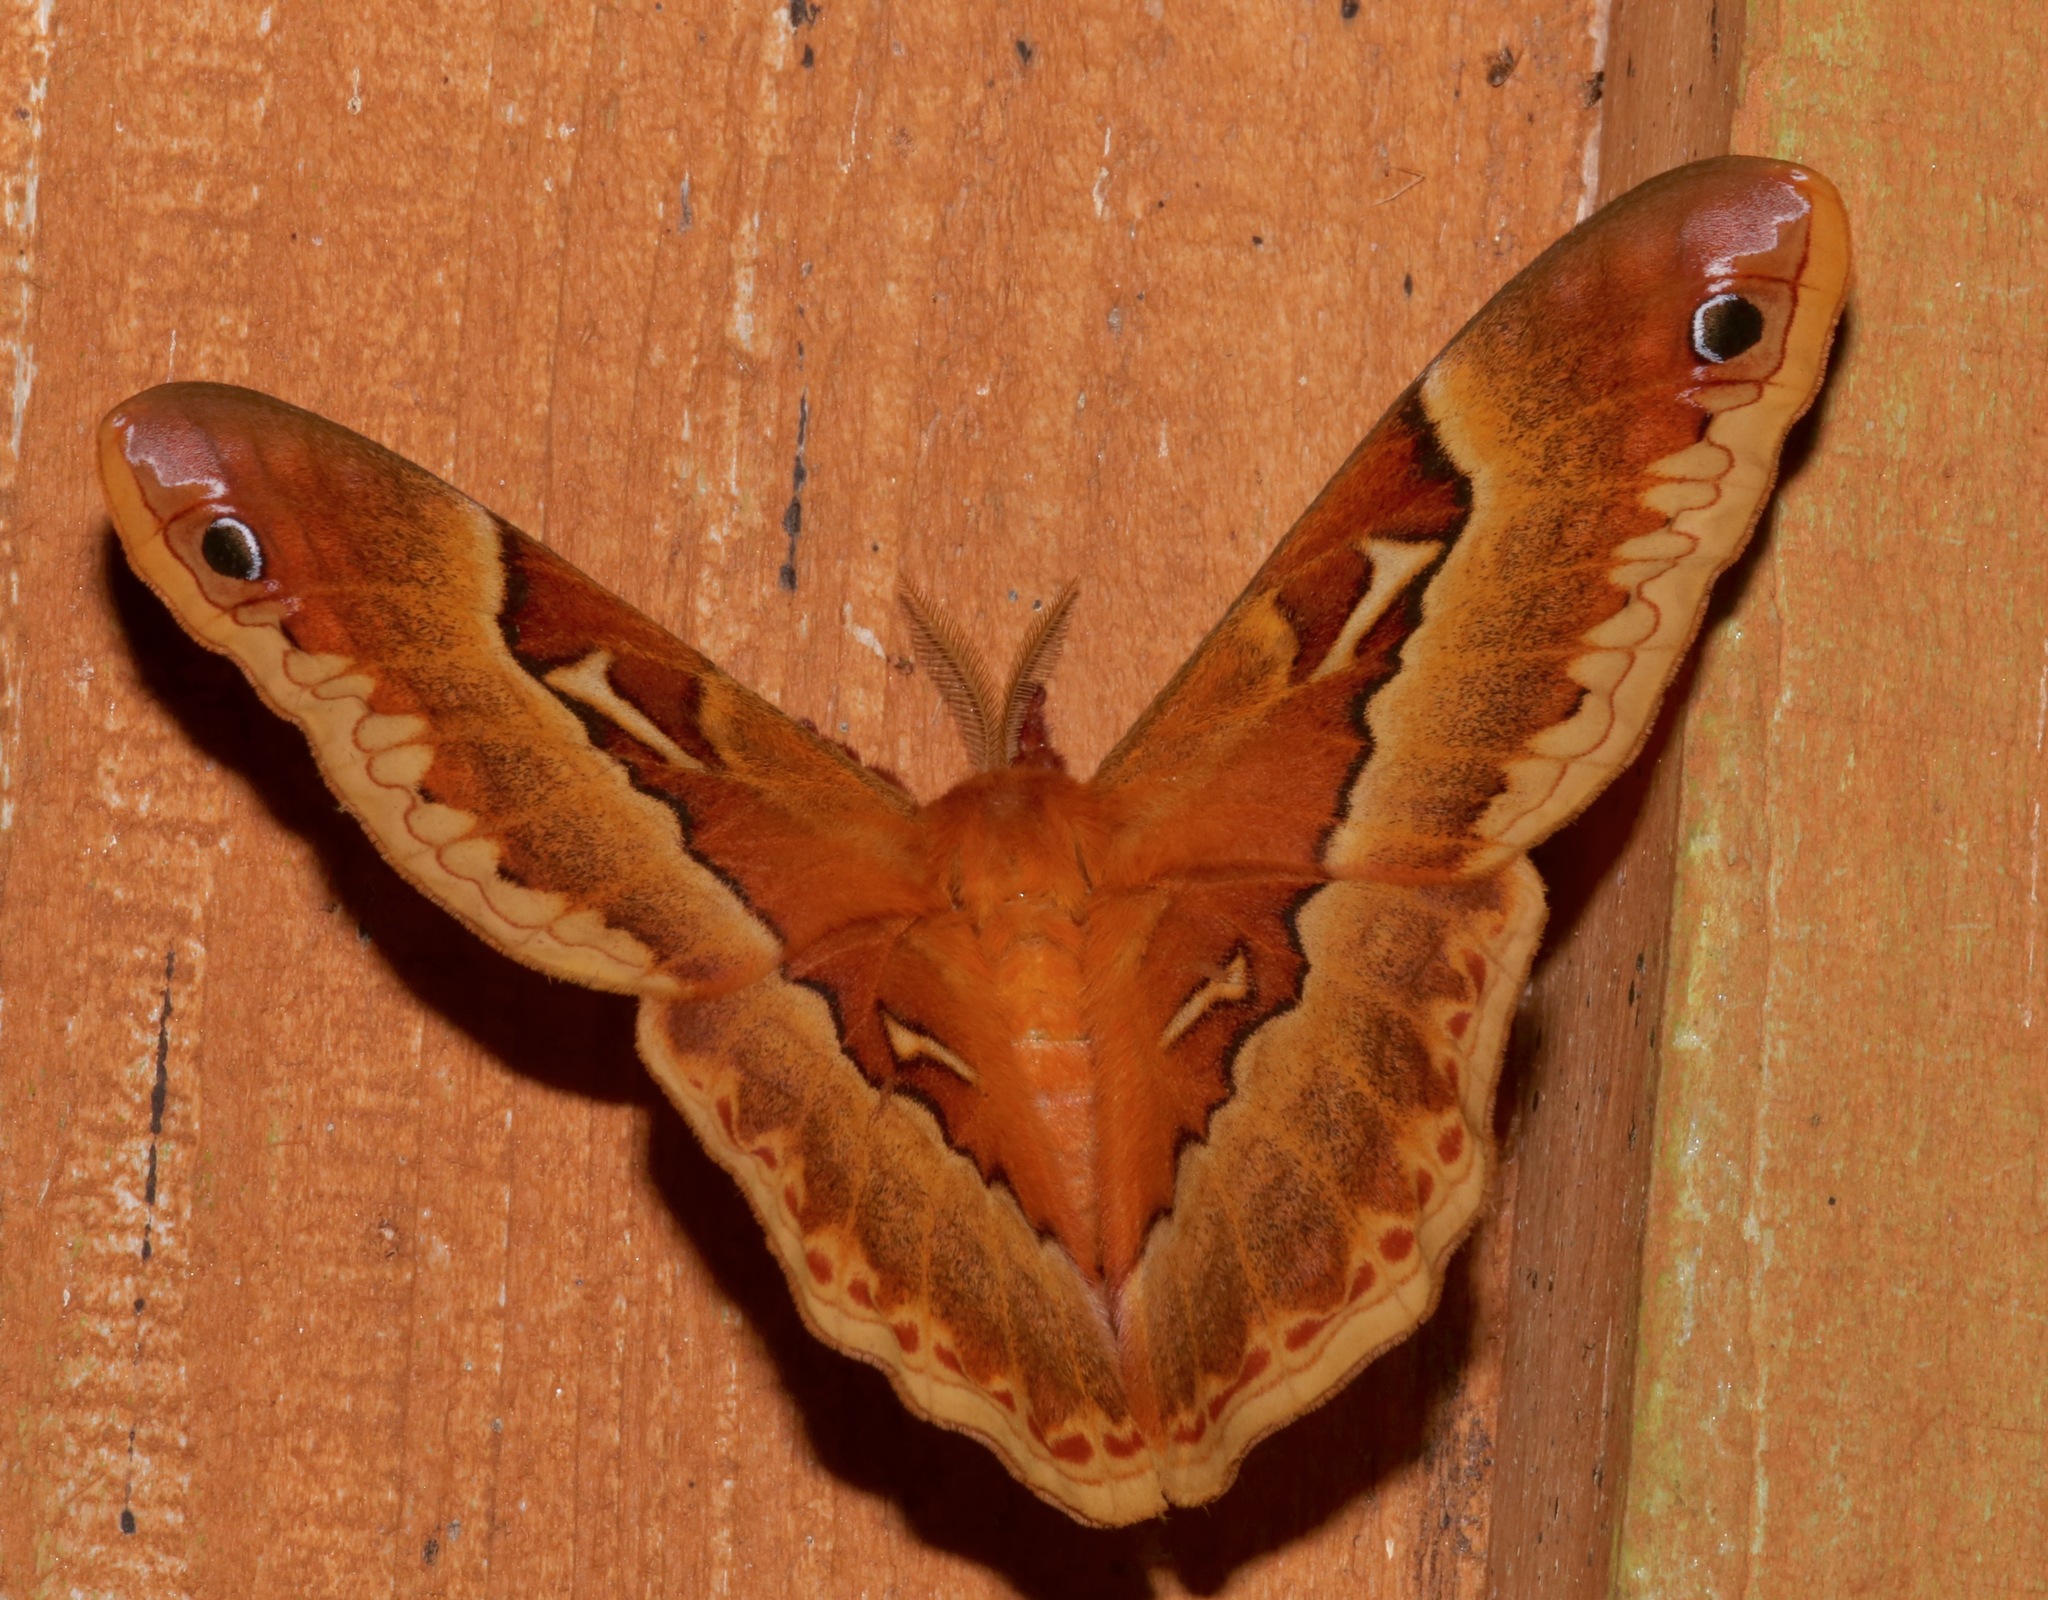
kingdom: Animalia
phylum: Arthropoda
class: Insecta
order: Lepidoptera
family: Saturniidae
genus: Callosamia
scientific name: Callosamia securifera
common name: Sweetbay silkmoth
